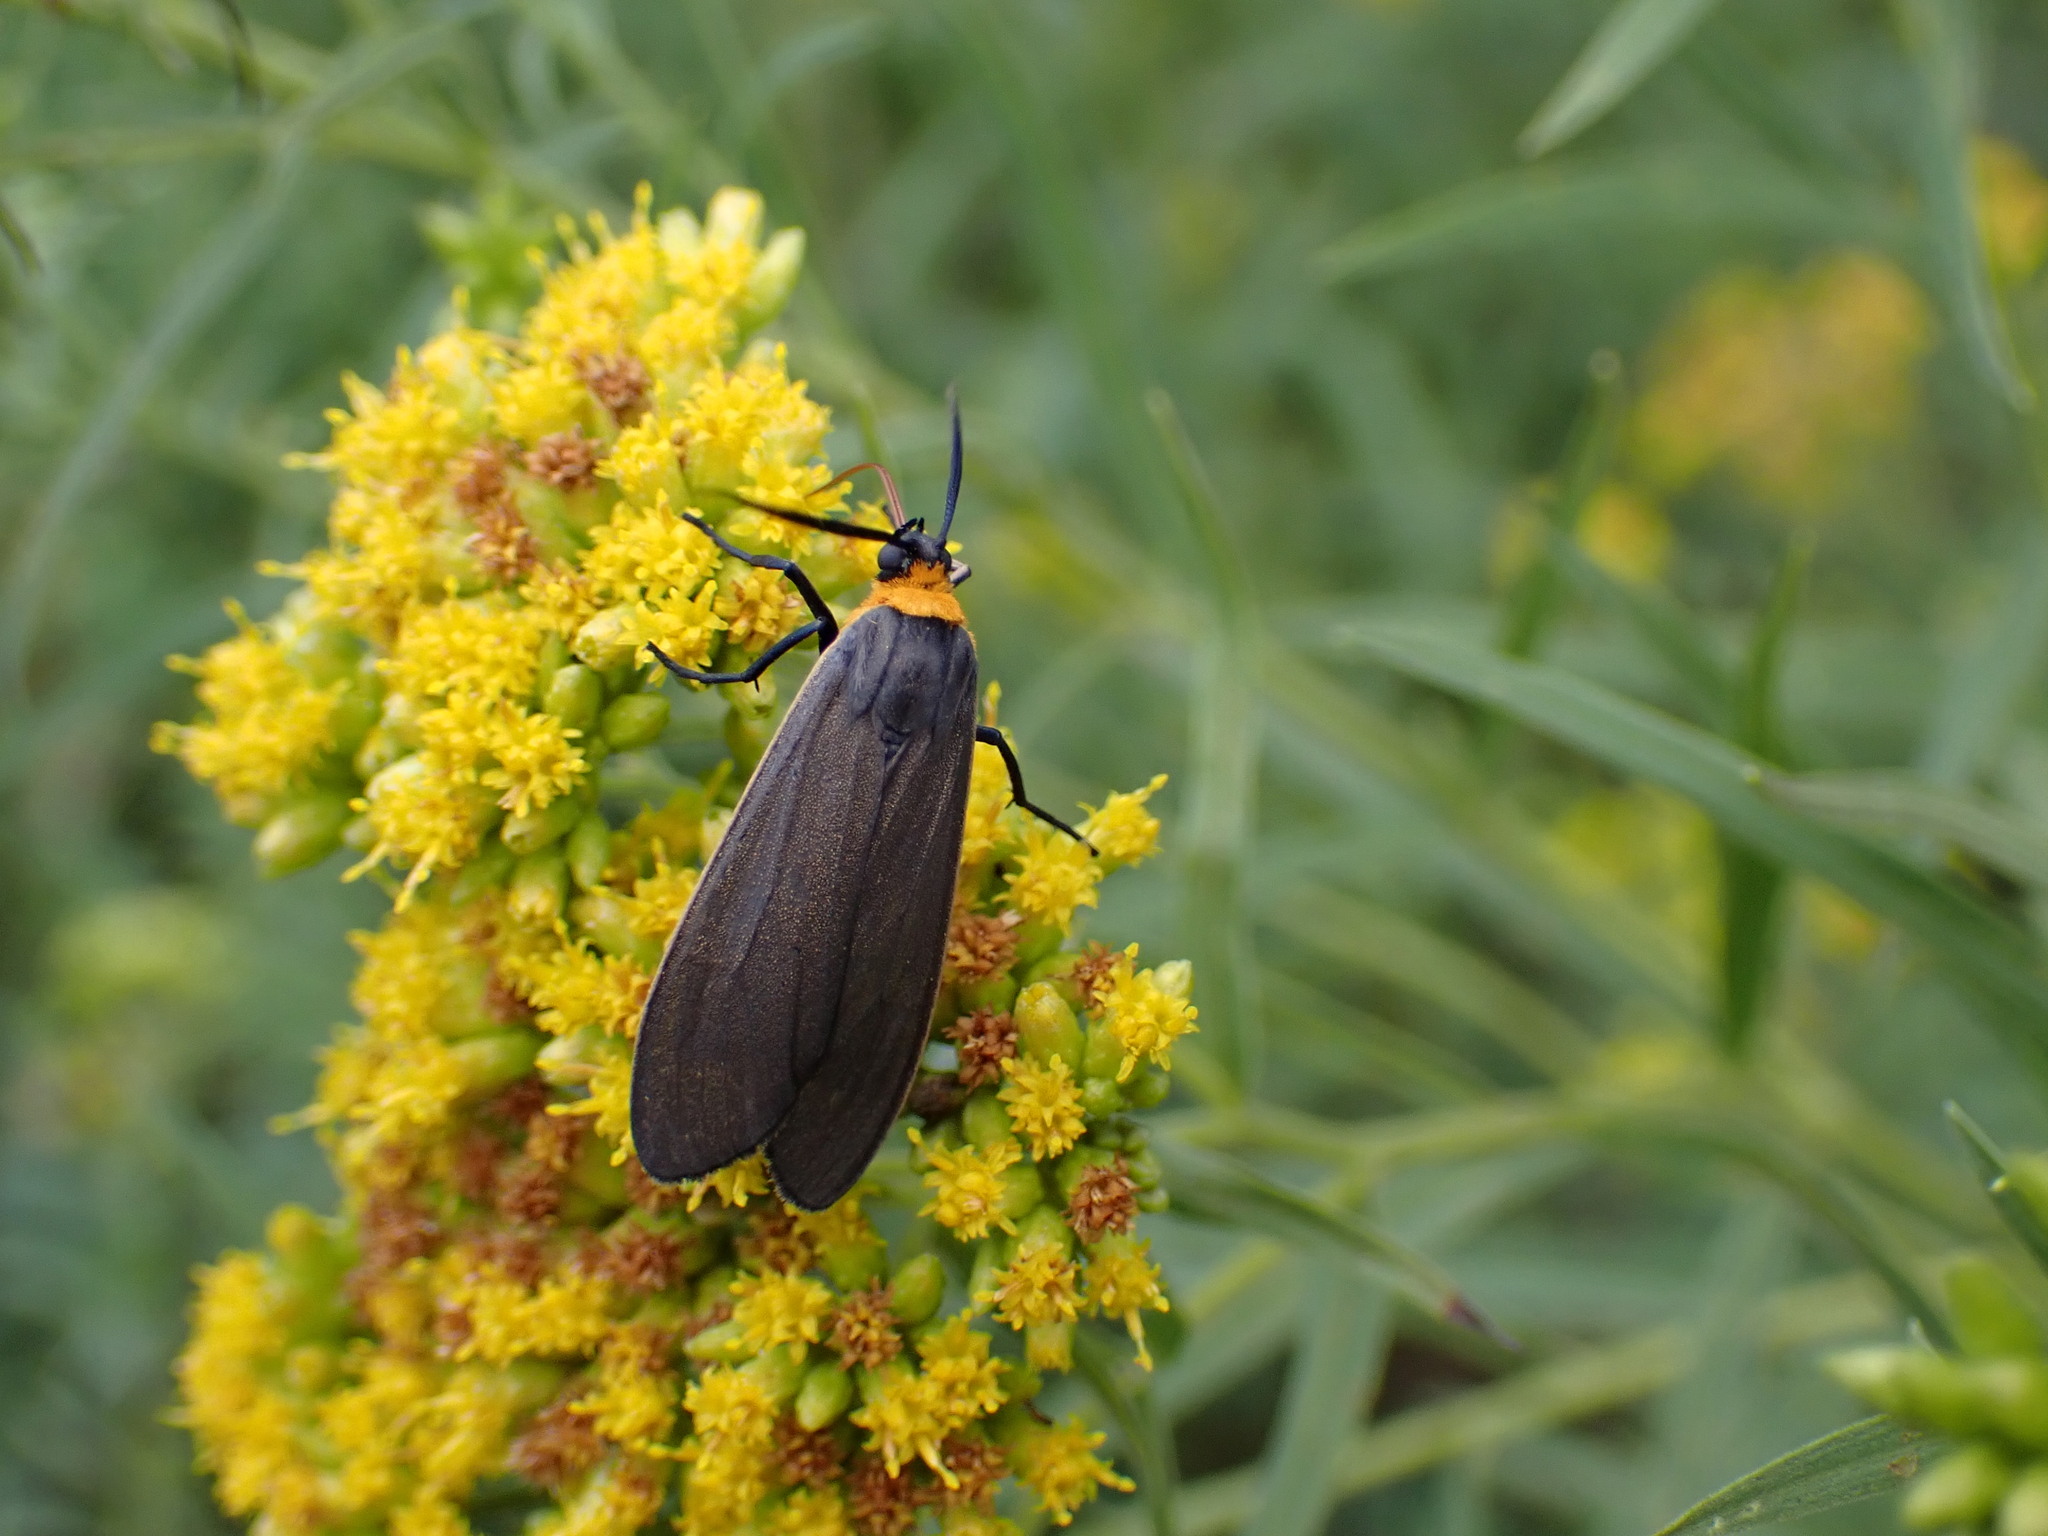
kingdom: Animalia
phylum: Arthropoda
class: Insecta
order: Lepidoptera
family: Erebidae
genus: Cisseps
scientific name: Cisseps fulvicollis
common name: Yellow-collared scape moth
